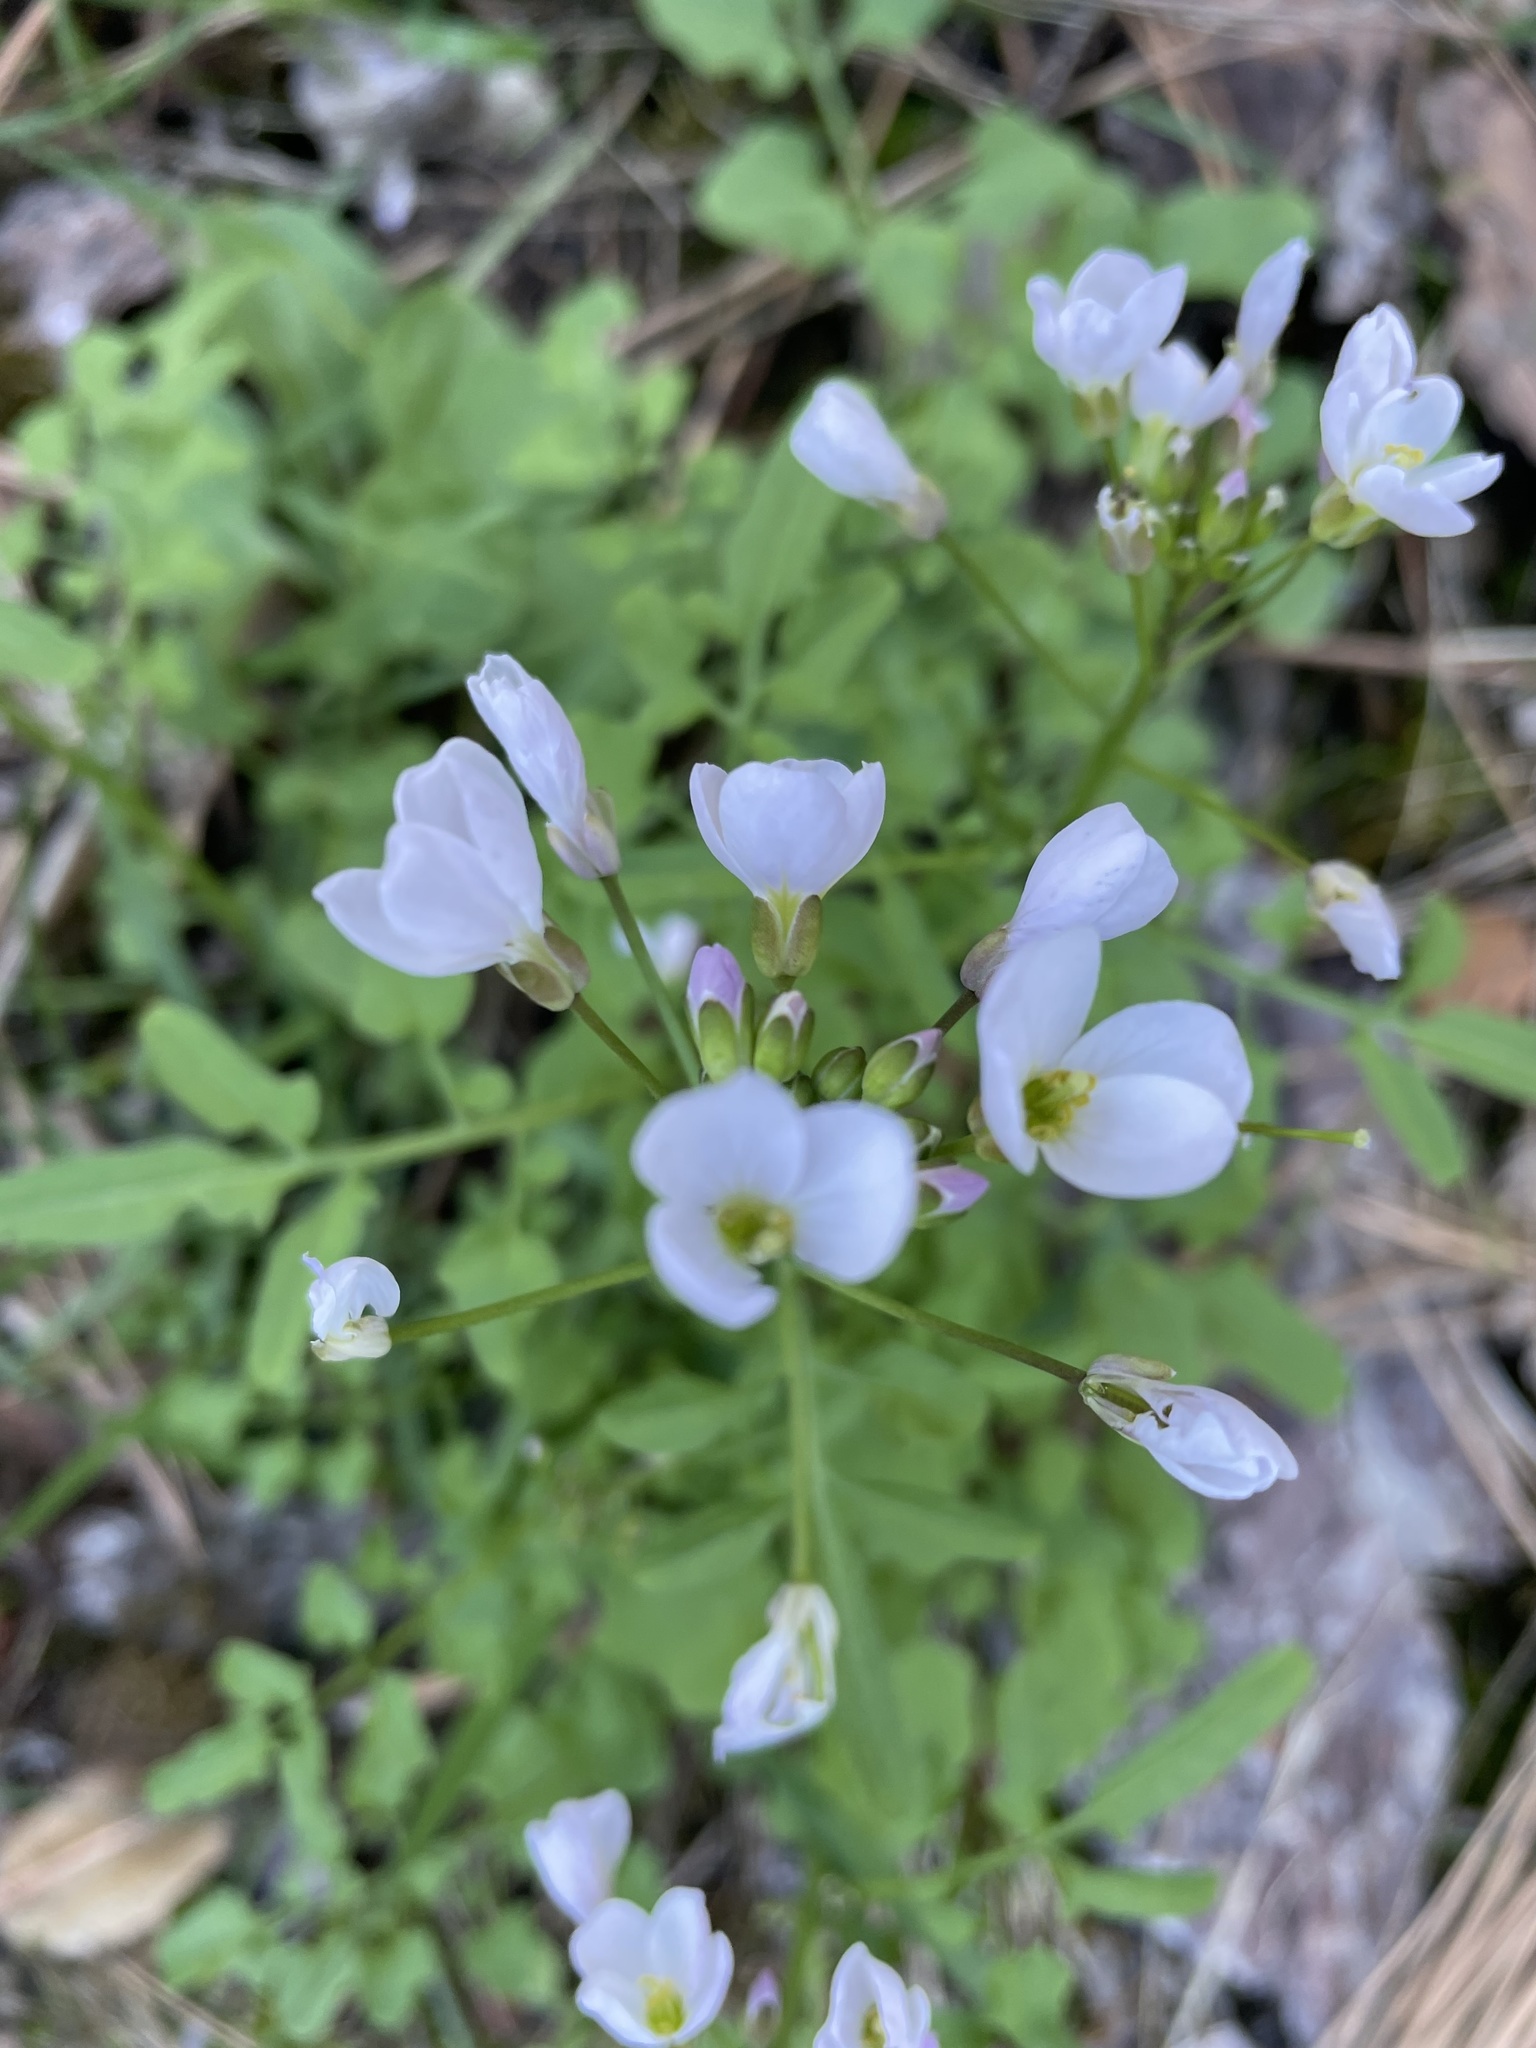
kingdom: Plantae
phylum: Tracheophyta
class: Magnoliopsida
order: Brassicales
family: Brassicaceae
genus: Cardamine
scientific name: Cardamine californica
